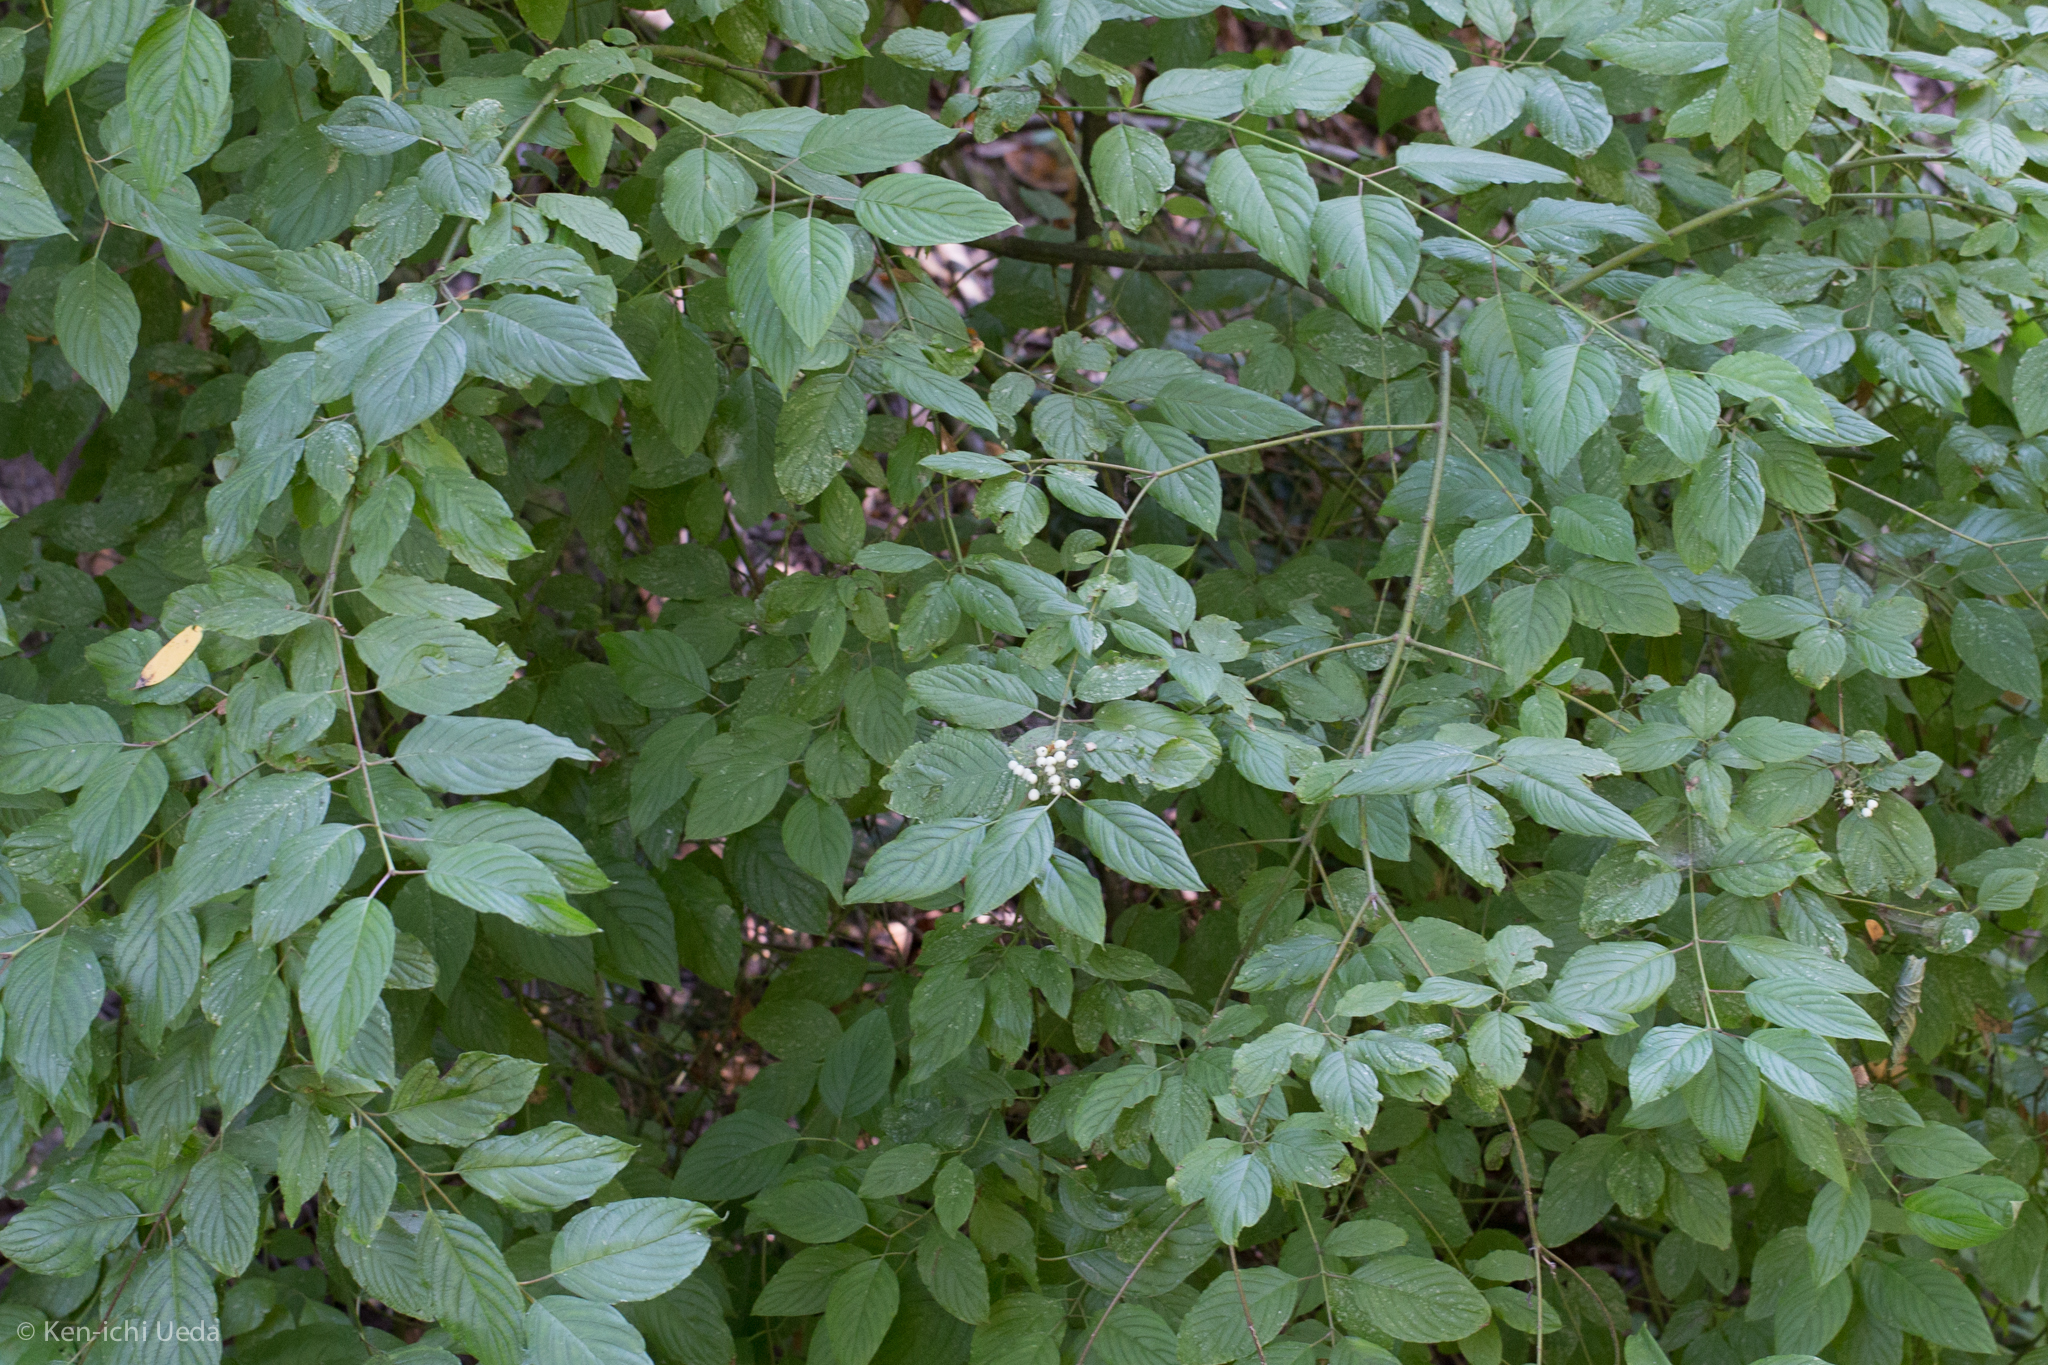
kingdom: Plantae
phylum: Tracheophyta
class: Magnoliopsida
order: Cornales
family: Cornaceae
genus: Cornus
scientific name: Cornus sericea
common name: Red-osier dogwood
